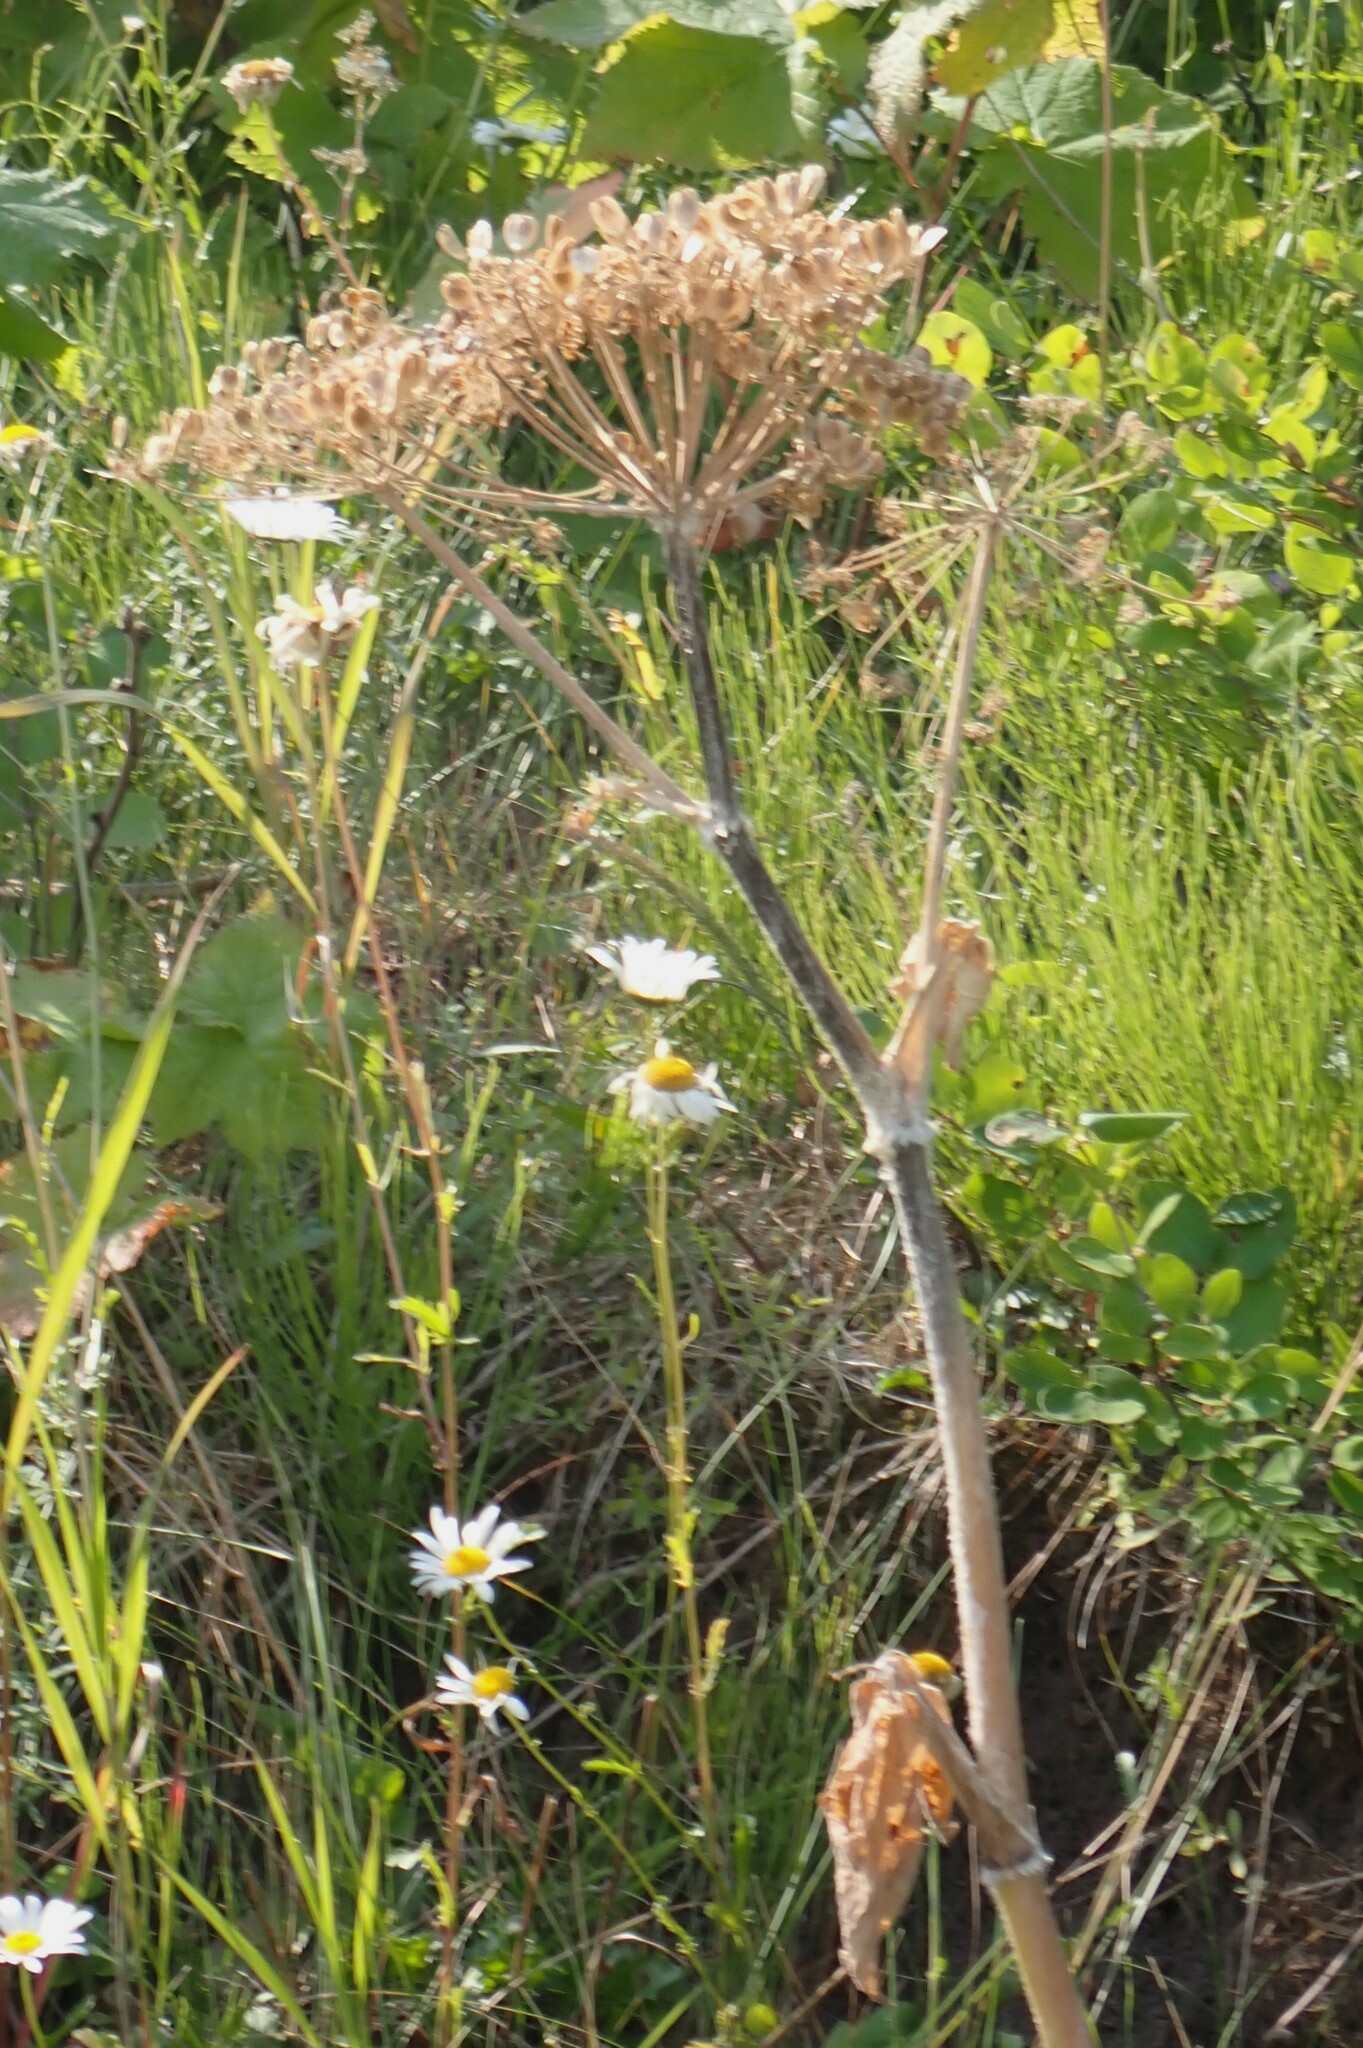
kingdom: Plantae
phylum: Tracheophyta
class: Magnoliopsida
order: Apiales
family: Apiaceae
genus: Heracleum
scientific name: Heracleum maximum
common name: American cow parsnip
